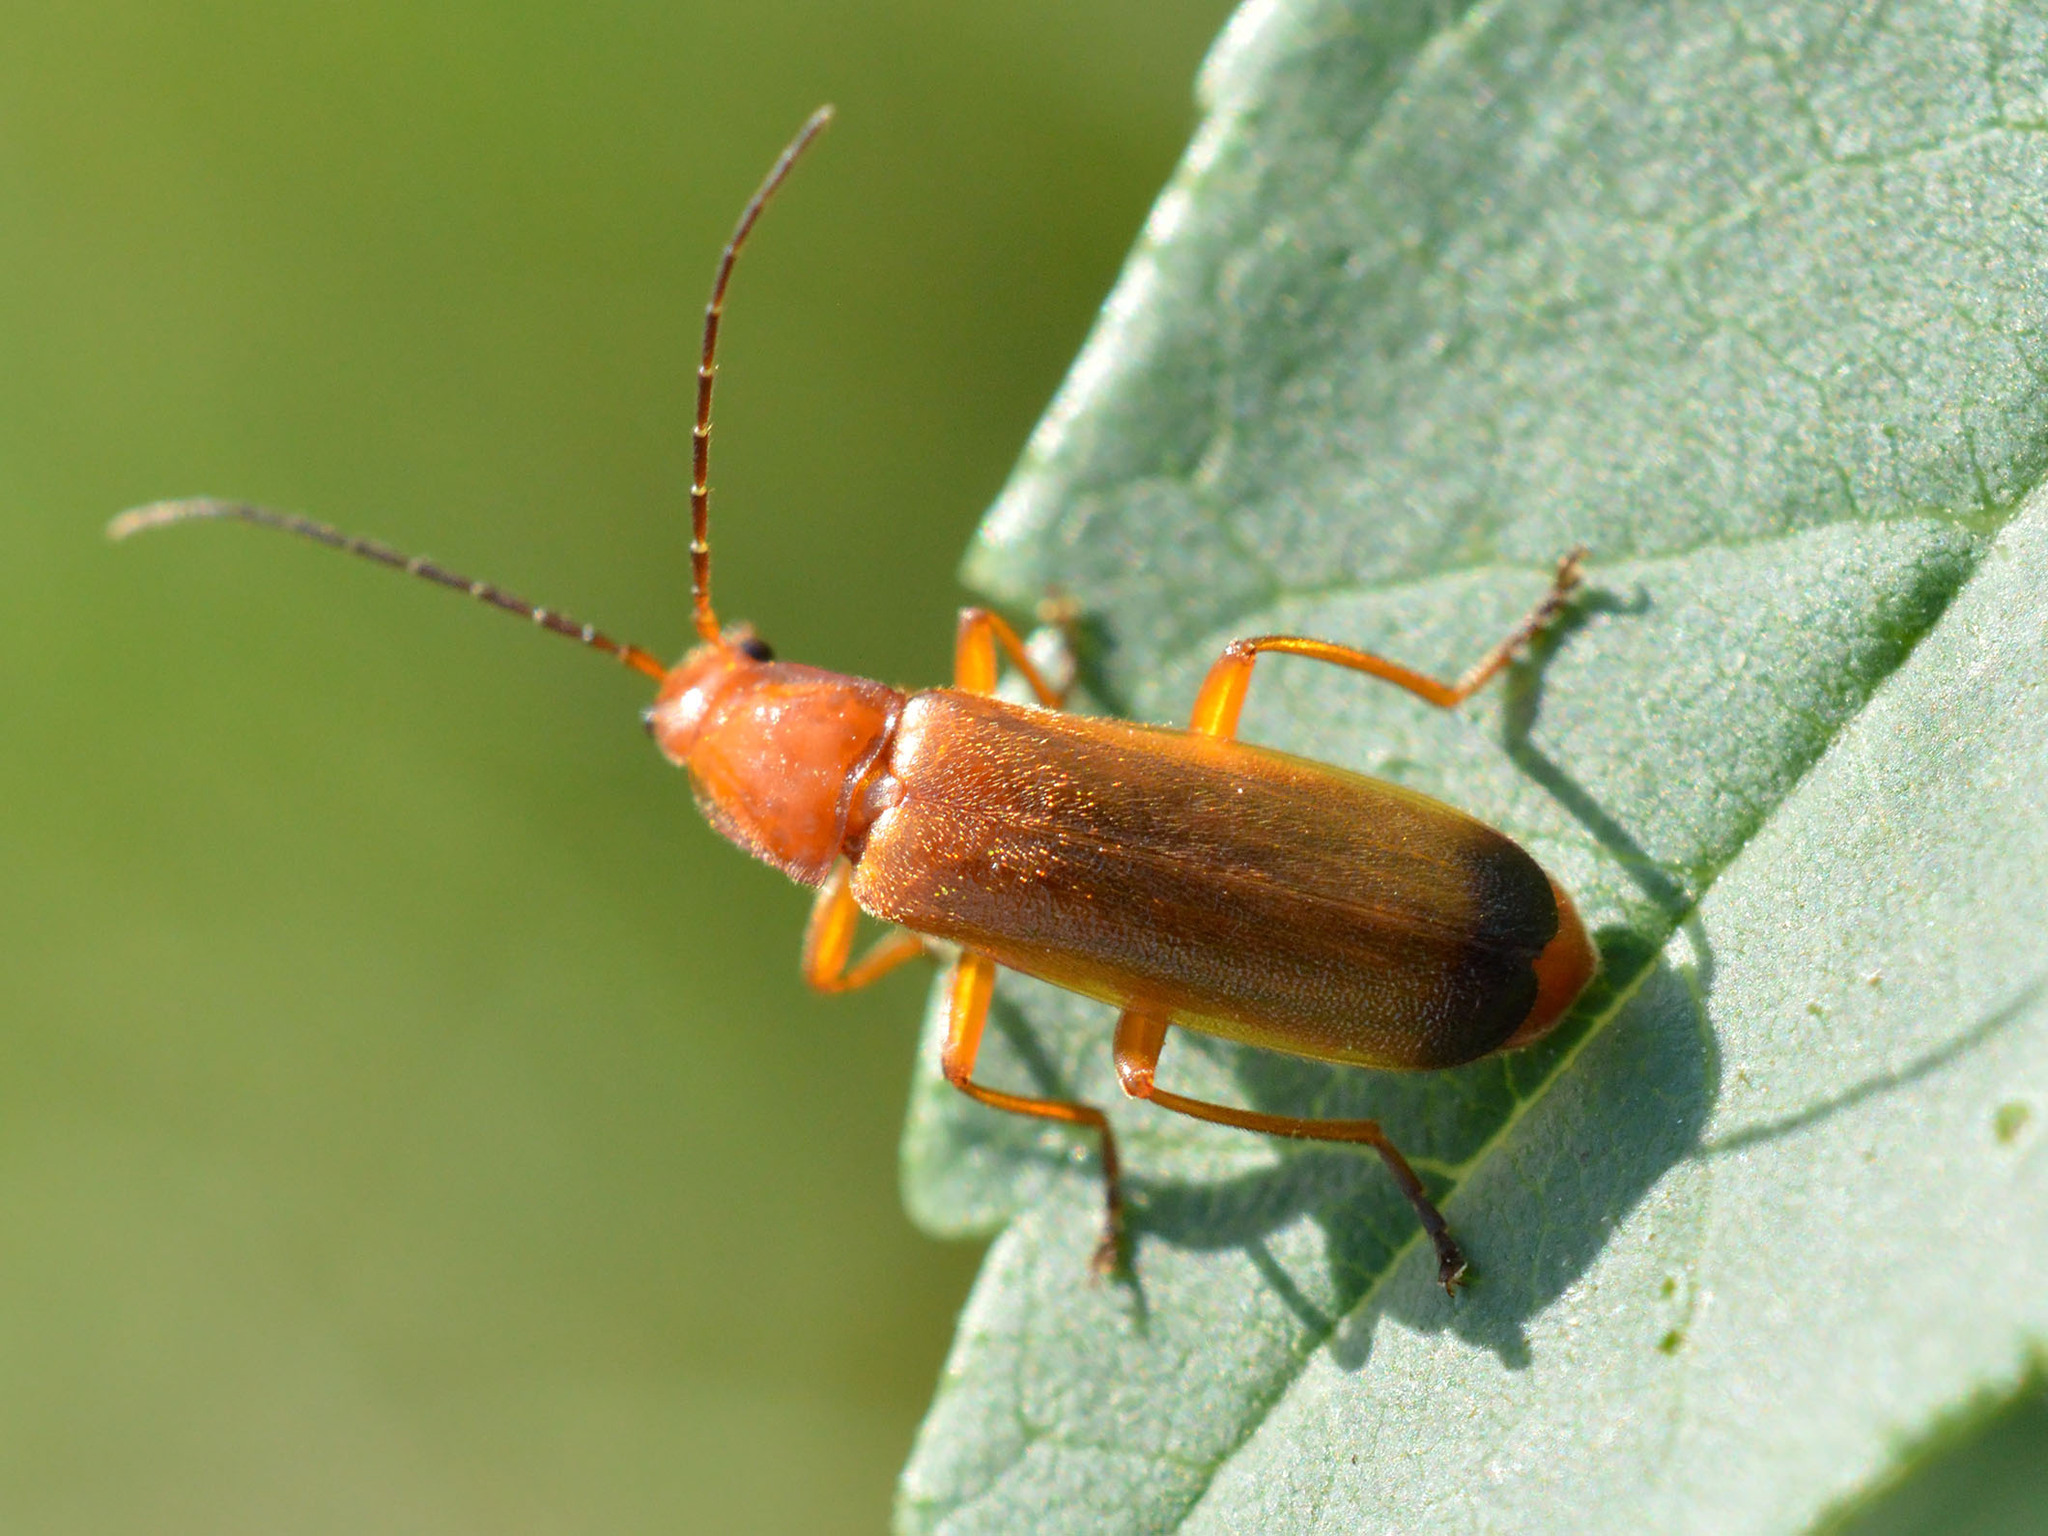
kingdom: Animalia
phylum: Arthropoda
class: Insecta
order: Coleoptera
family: Cantharidae
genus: Rhagonycha
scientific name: Rhagonycha fulva
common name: Common red soldier beetle
